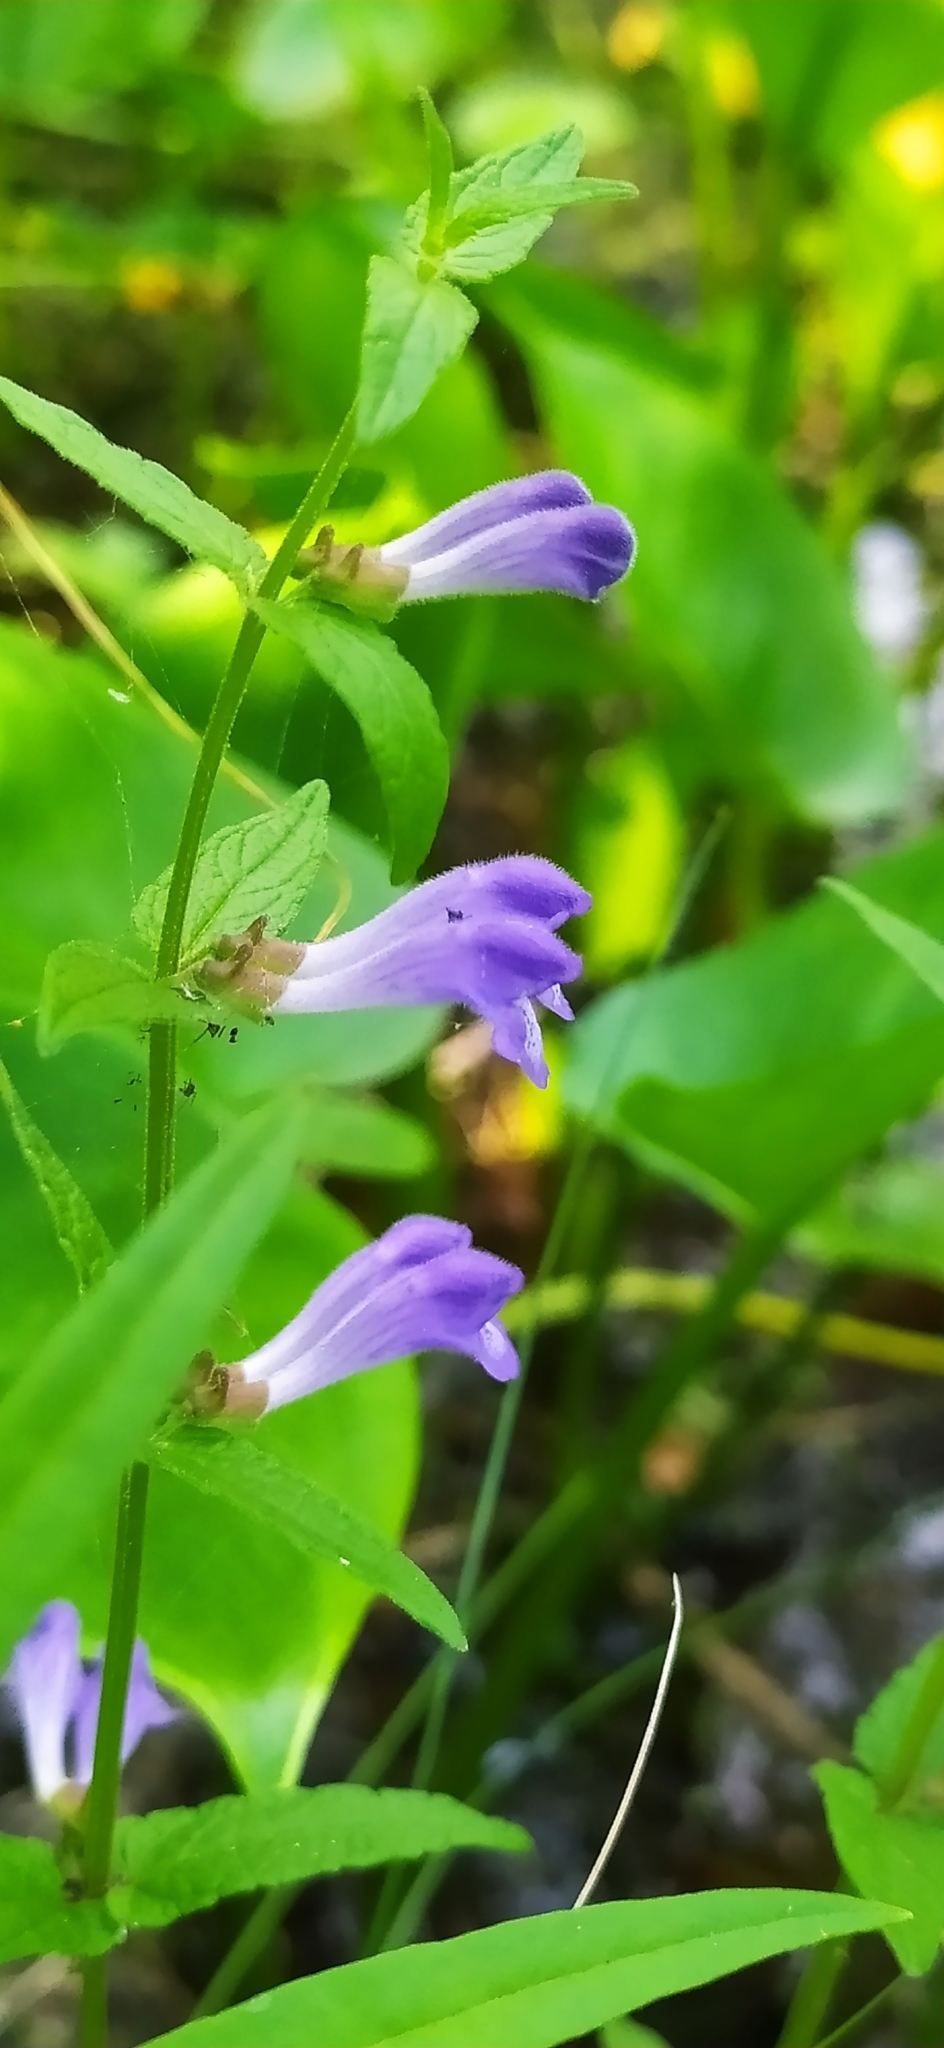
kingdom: Plantae
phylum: Tracheophyta
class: Magnoliopsida
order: Lamiales
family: Lamiaceae
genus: Scutellaria
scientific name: Scutellaria galericulata
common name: Skullcap
